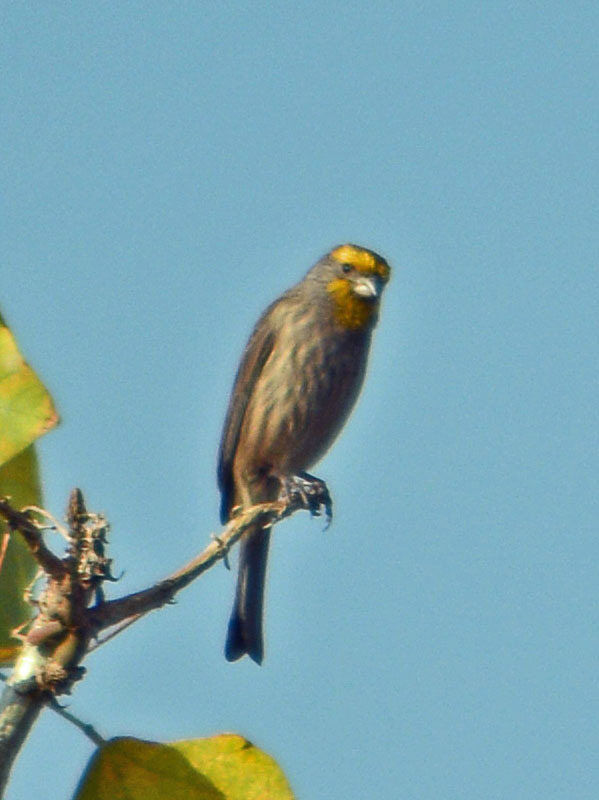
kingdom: Animalia
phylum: Chordata
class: Aves
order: Passeriformes
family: Fringillidae
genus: Haemorhous
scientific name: Haemorhous mexicanus
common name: House finch
